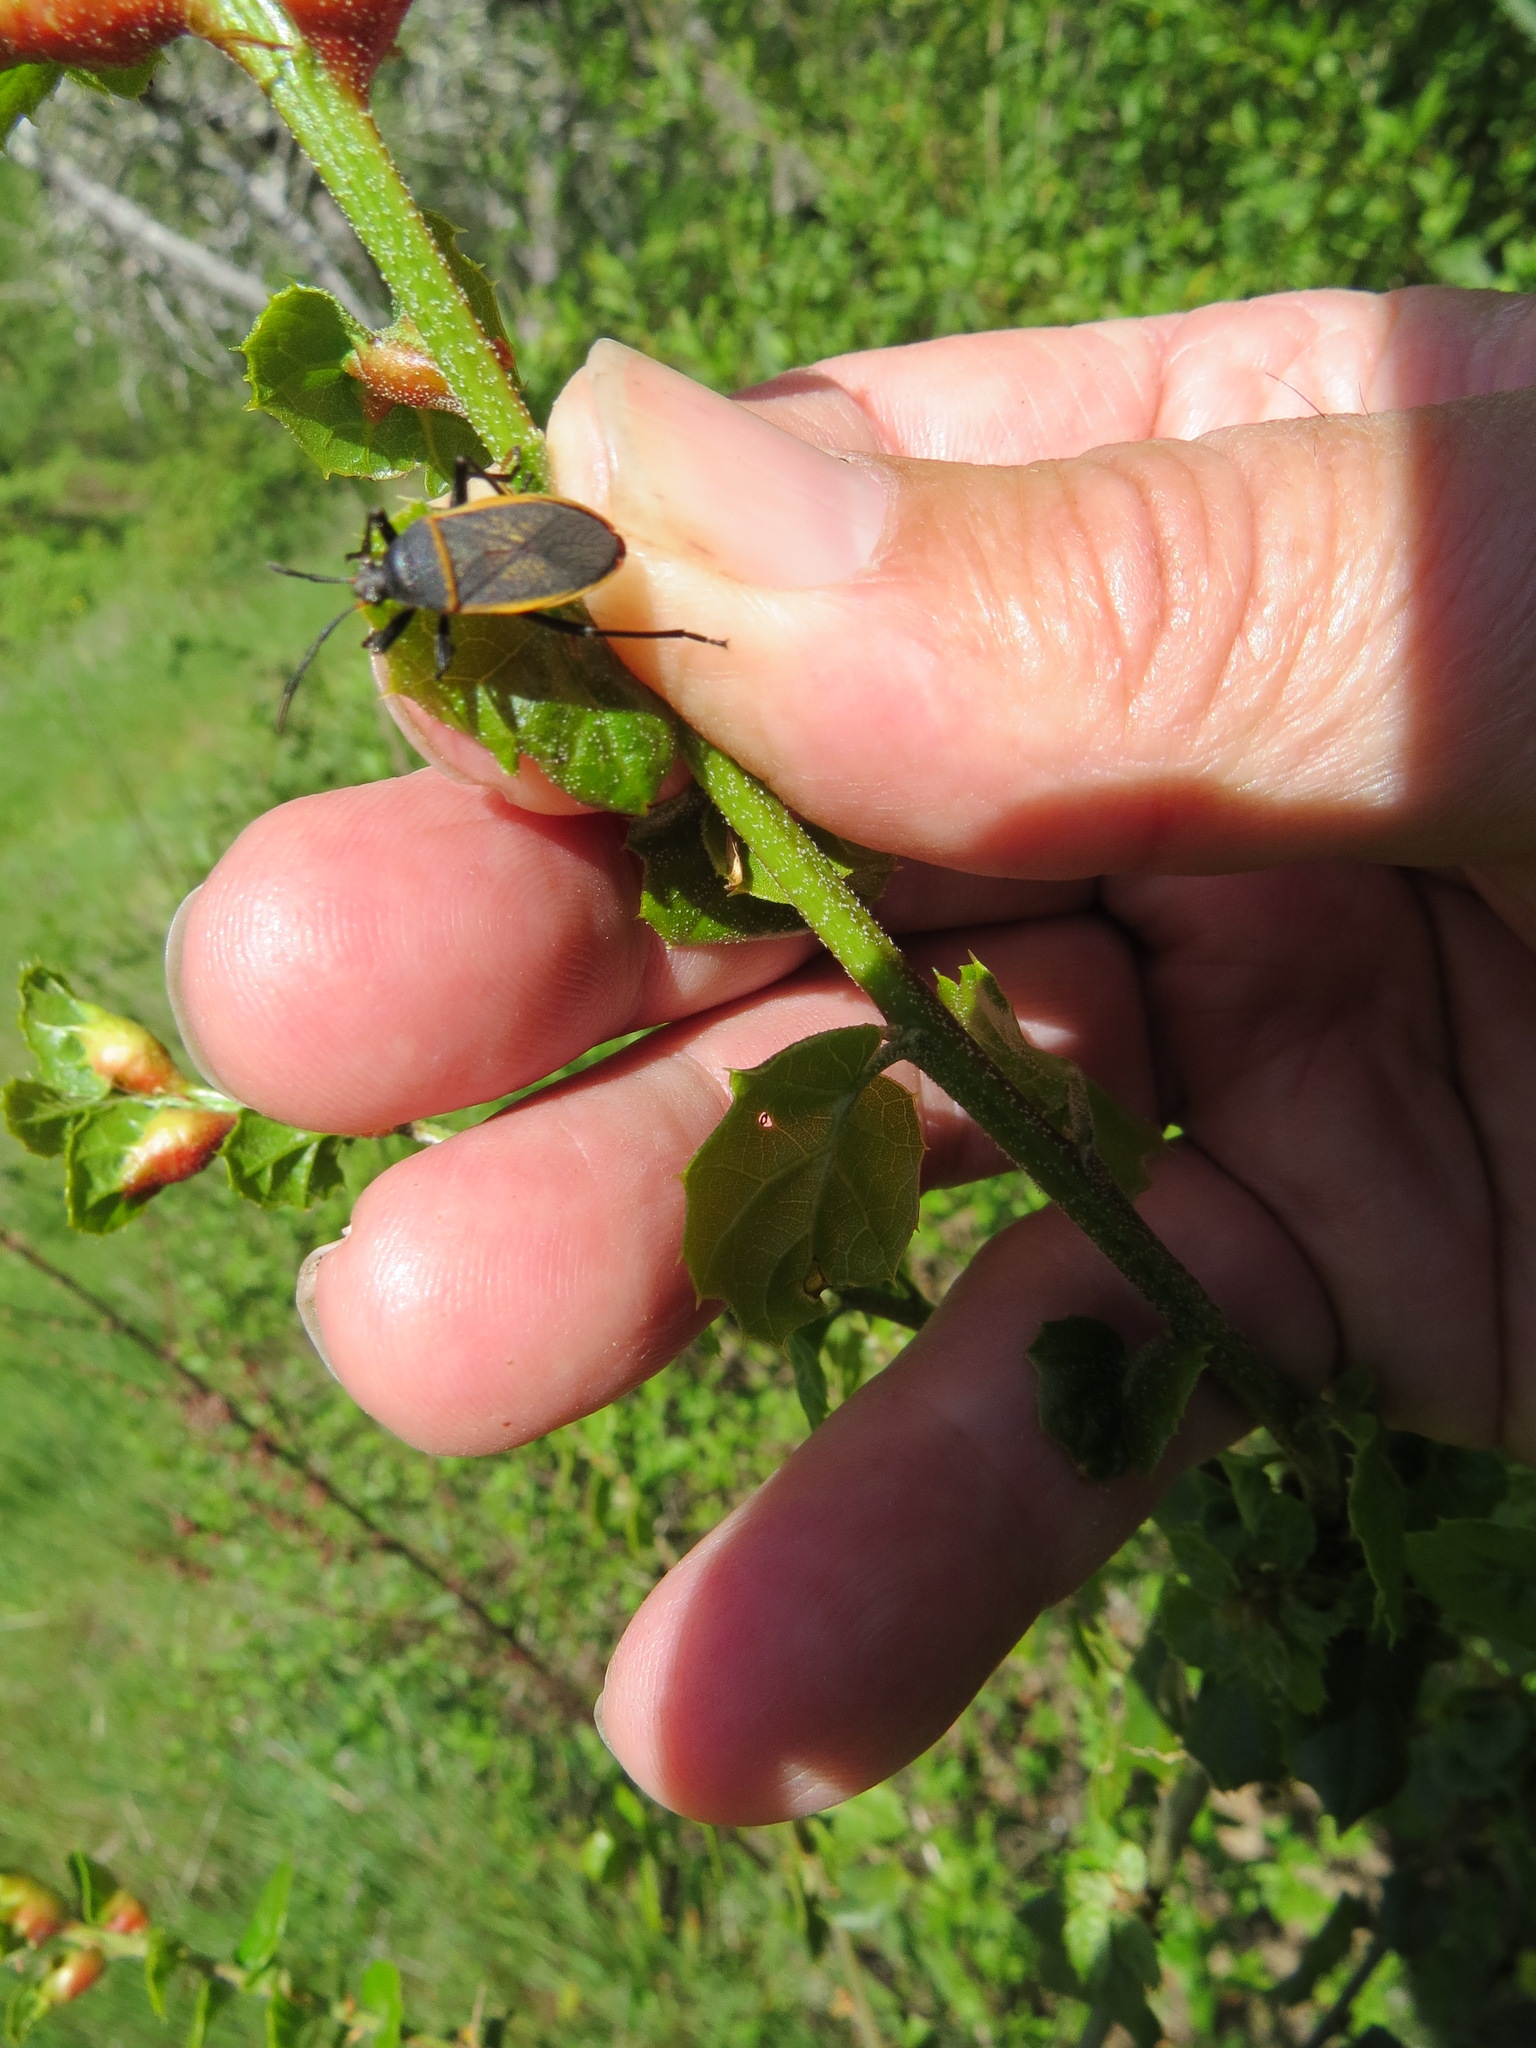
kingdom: Animalia
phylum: Arthropoda
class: Insecta
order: Hemiptera
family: Largidae
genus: Largus
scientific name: Largus californicus
